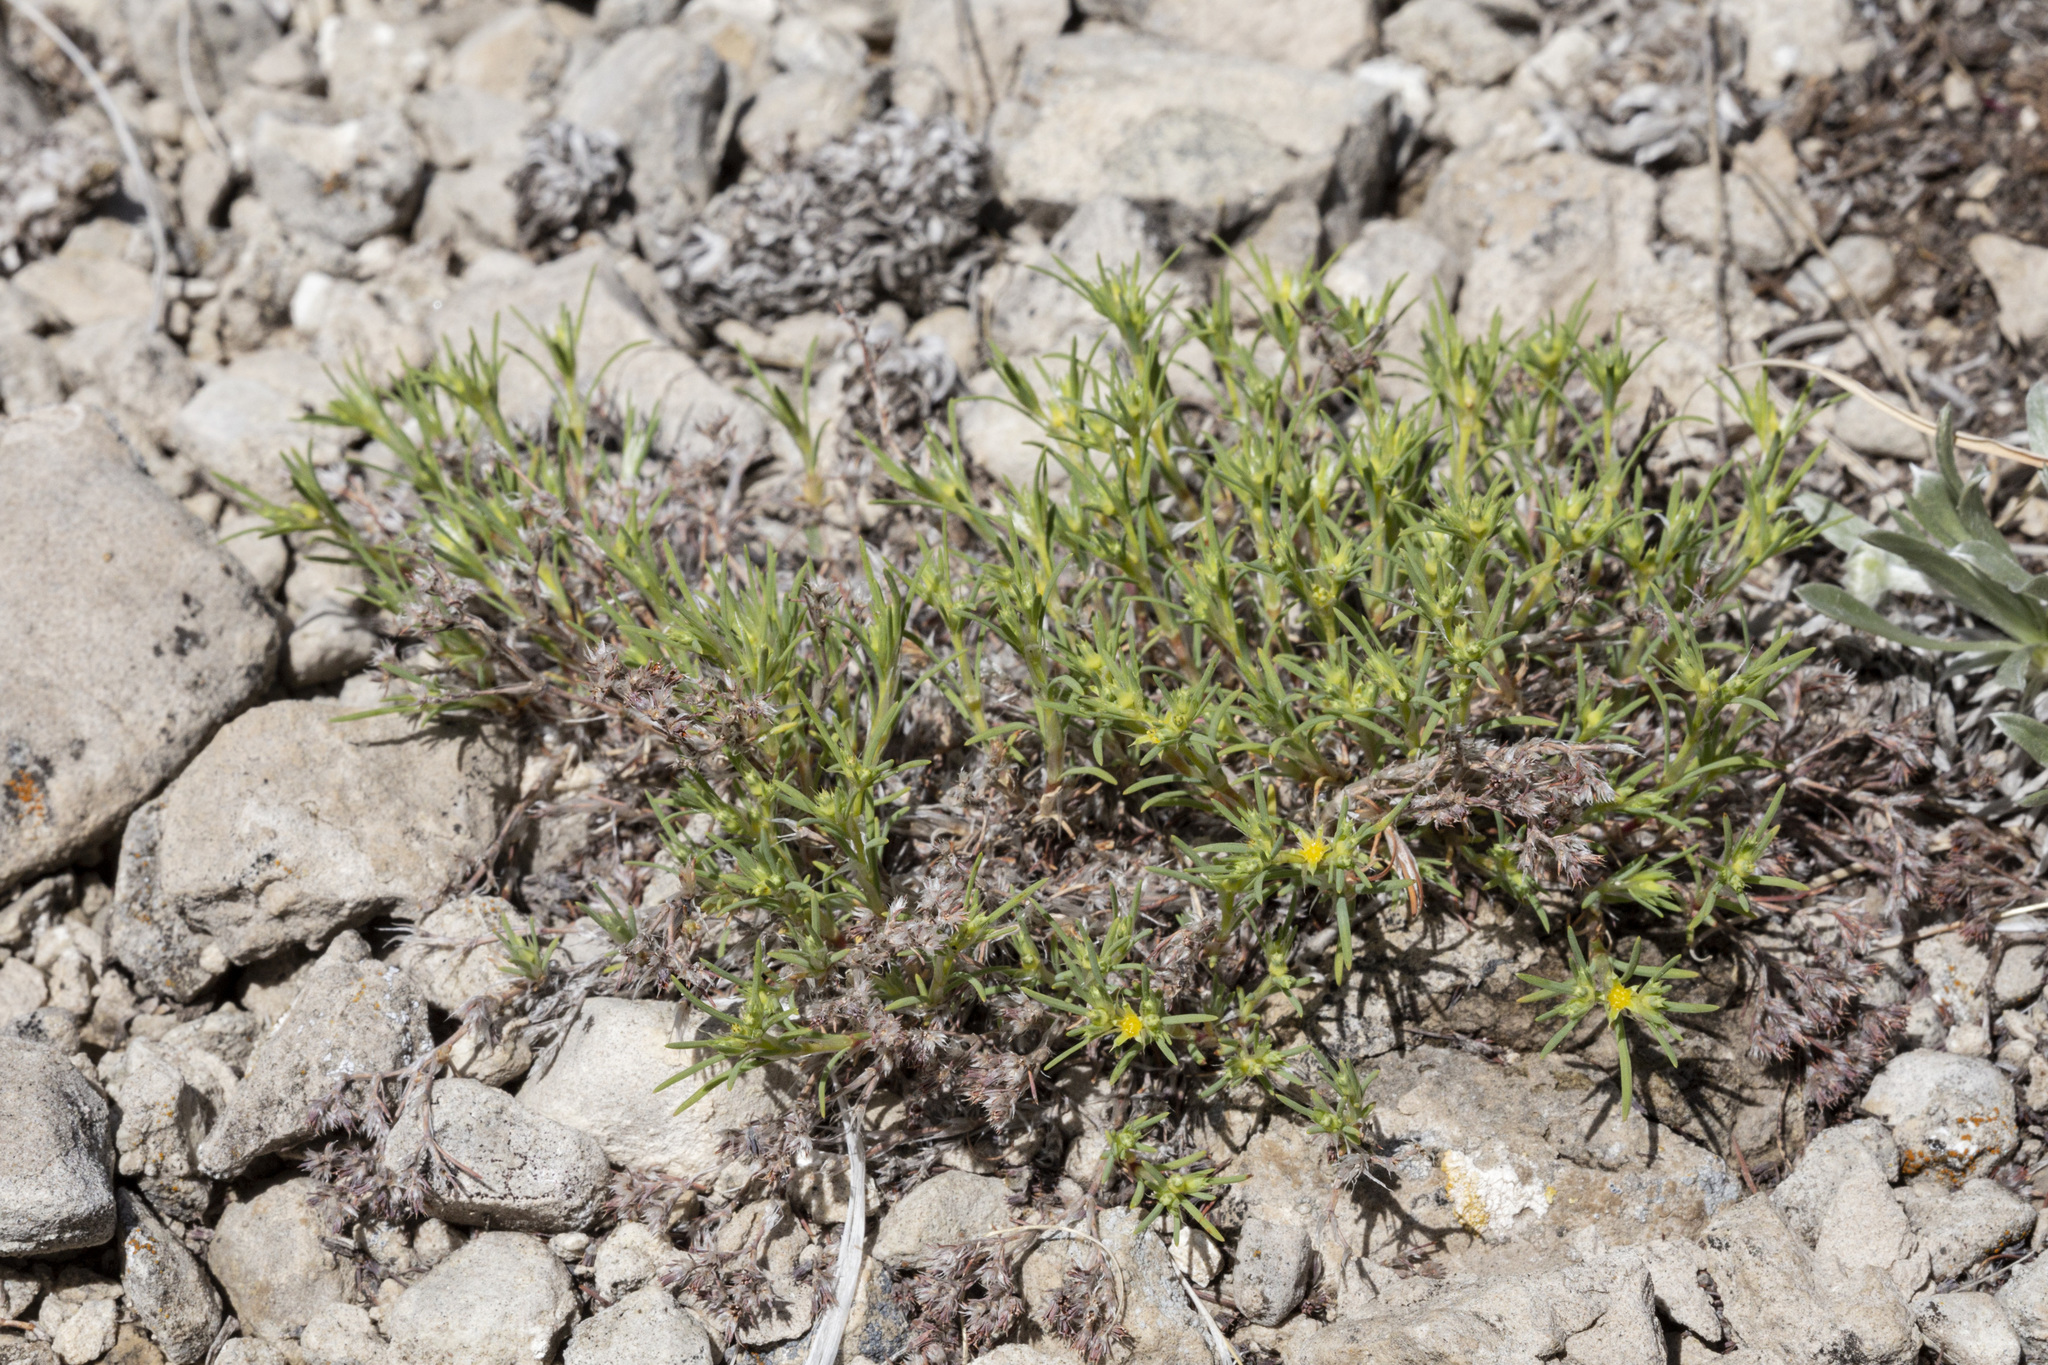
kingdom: Plantae
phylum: Tracheophyta
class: Magnoliopsida
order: Caryophyllales
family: Caryophyllaceae
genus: Paronychia
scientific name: Paronychia jamesii
